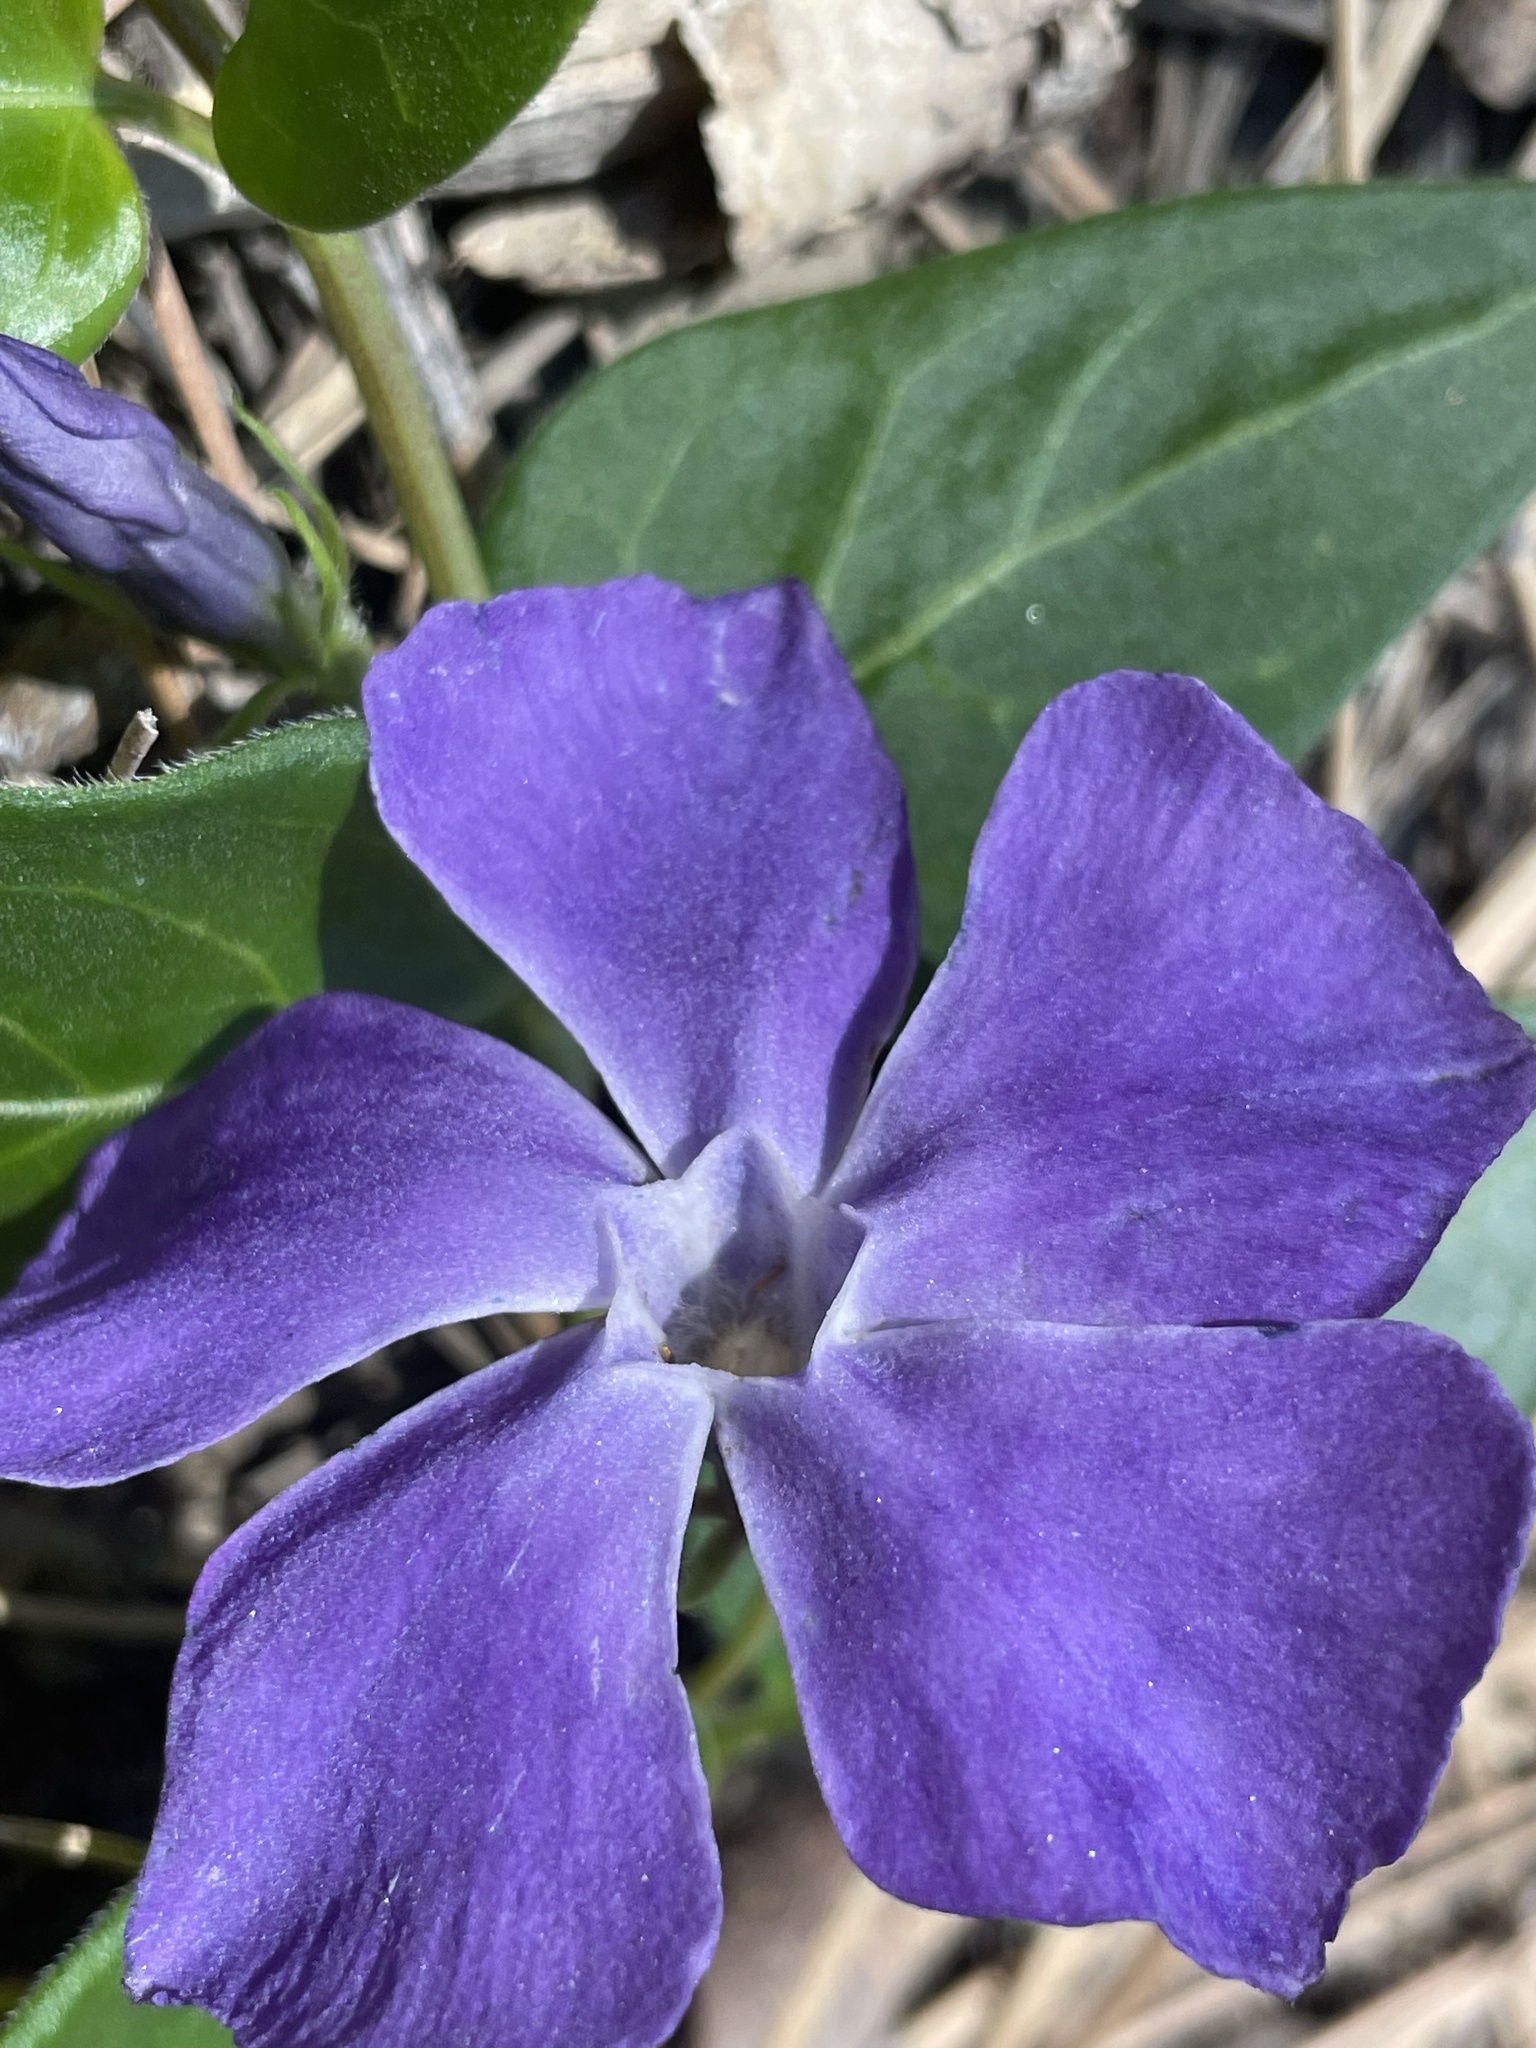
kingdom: Plantae
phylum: Tracheophyta
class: Magnoliopsida
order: Gentianales
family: Apocynaceae
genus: Vinca
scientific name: Vinca major
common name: Greater periwinkle
